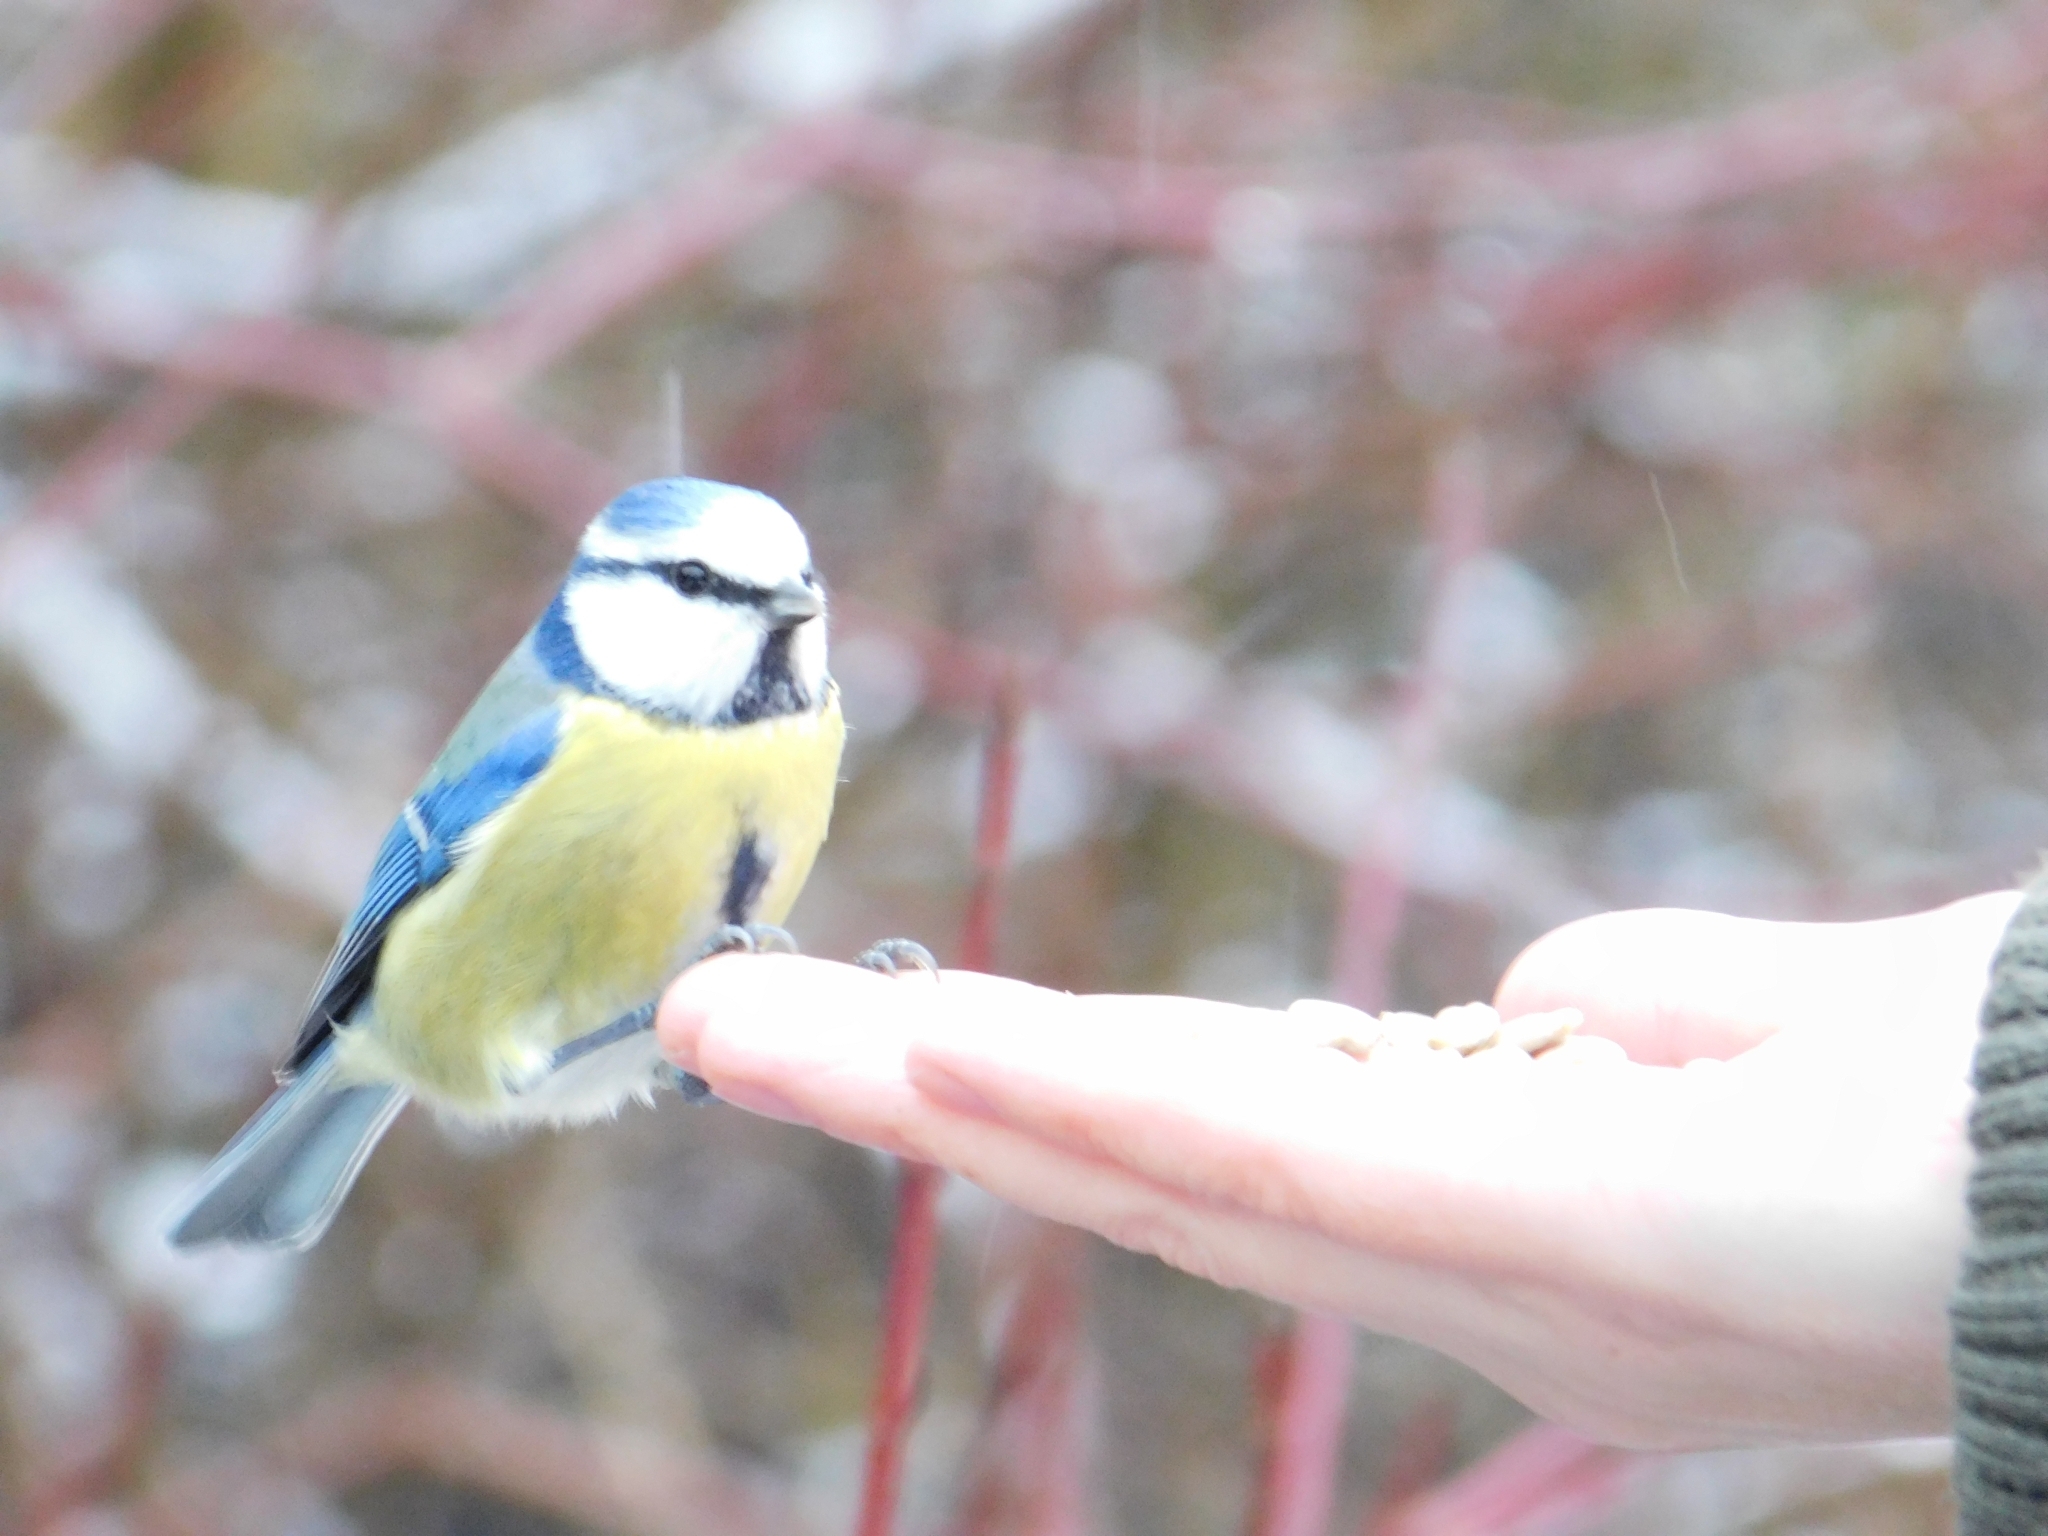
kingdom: Animalia
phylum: Chordata
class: Aves
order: Passeriformes
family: Paridae
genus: Cyanistes
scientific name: Cyanistes caeruleus
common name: Eurasian blue tit
